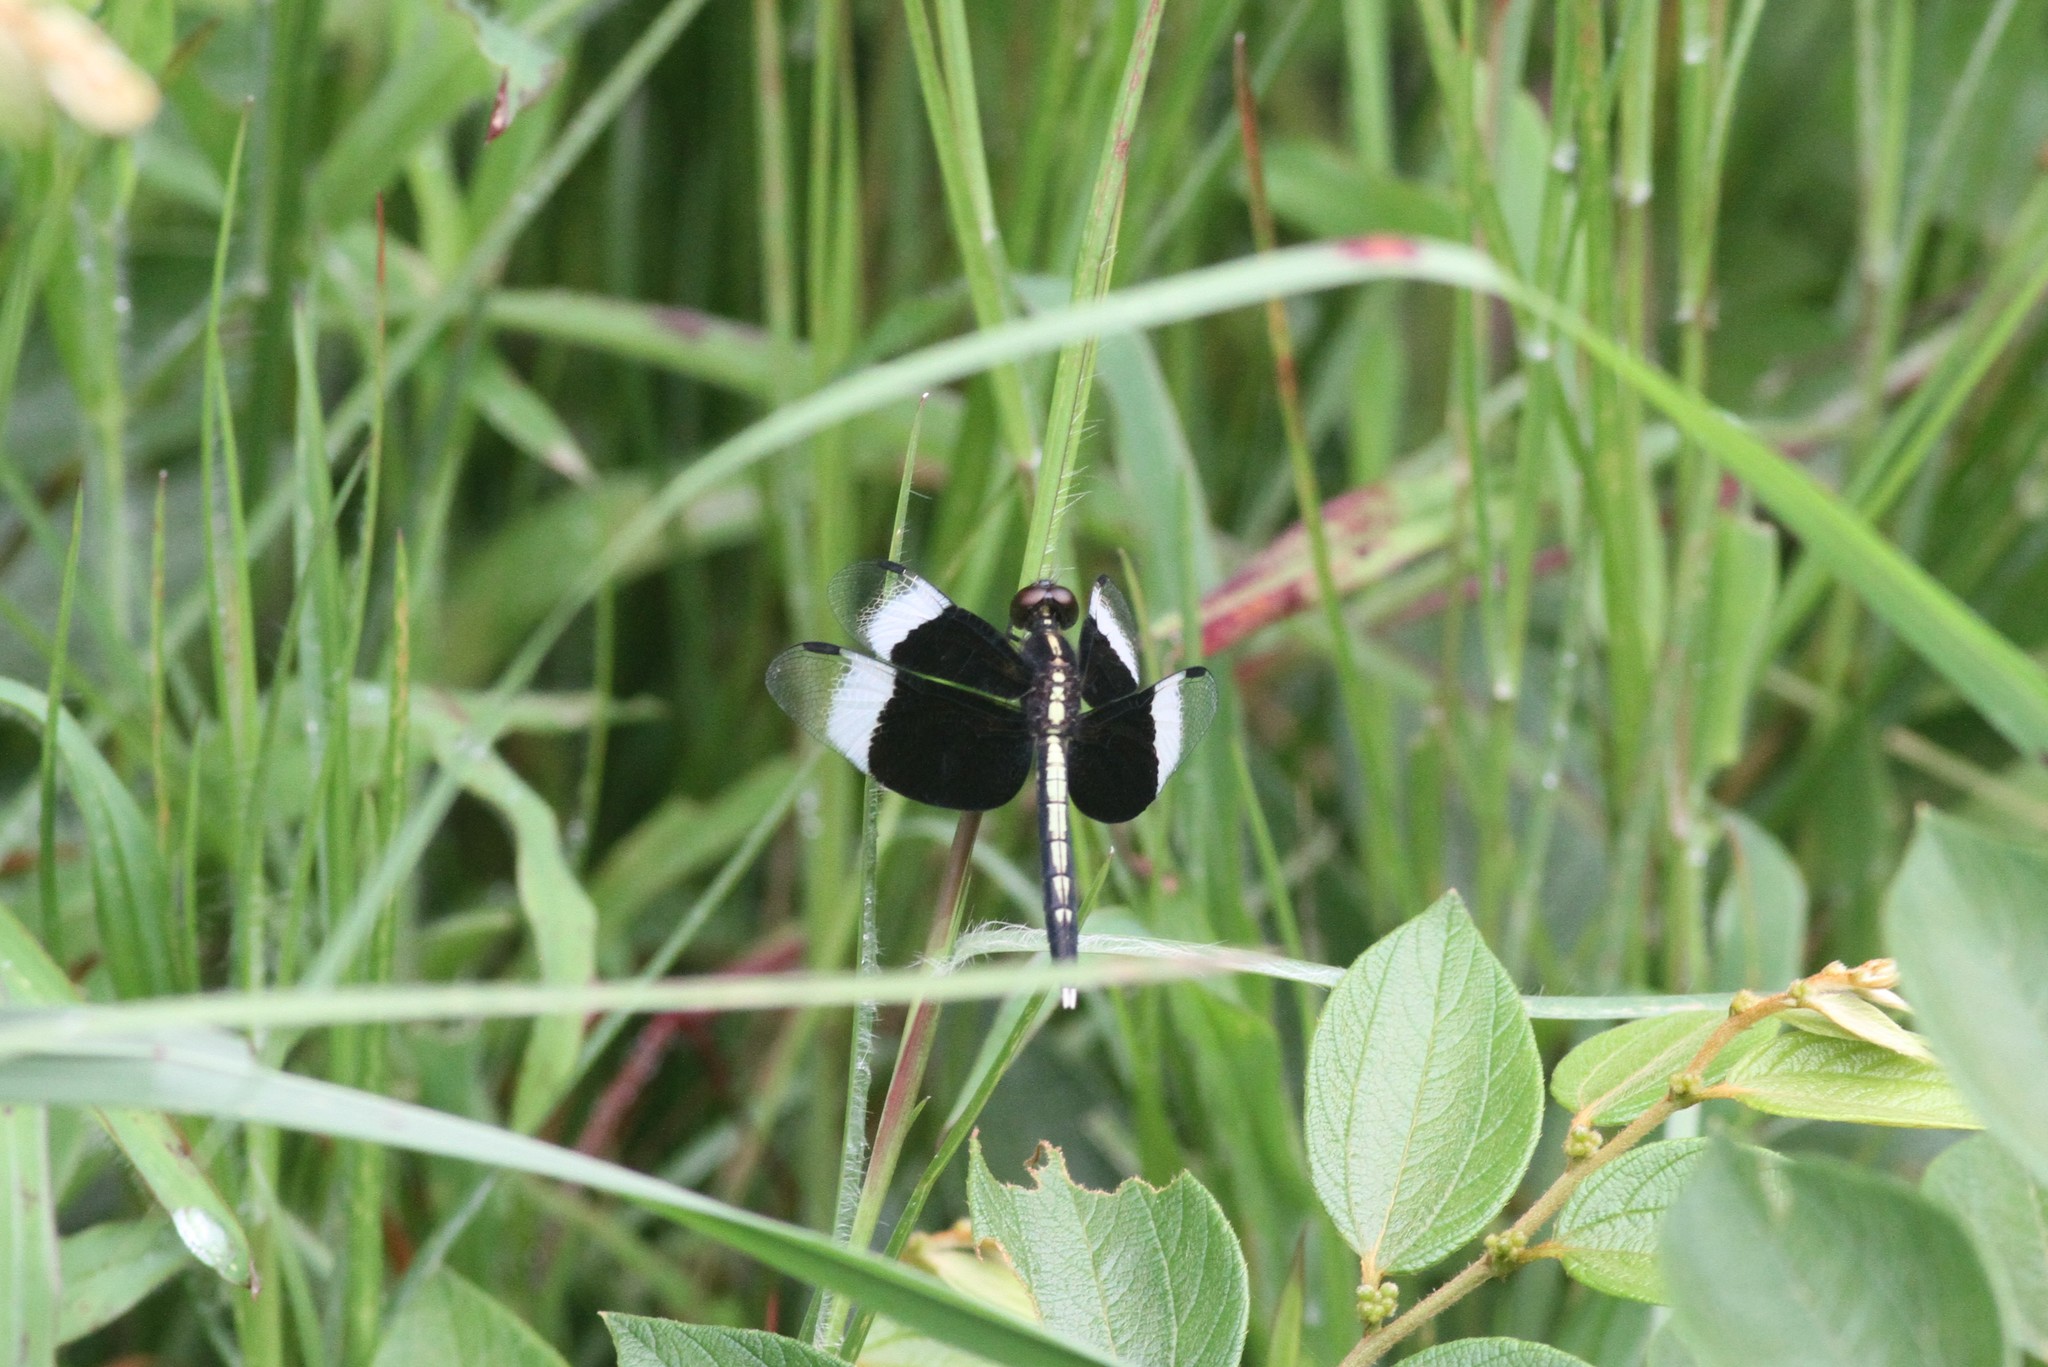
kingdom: Animalia
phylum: Arthropoda
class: Insecta
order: Odonata
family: Libellulidae
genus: Neurothemis
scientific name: Neurothemis tullia
